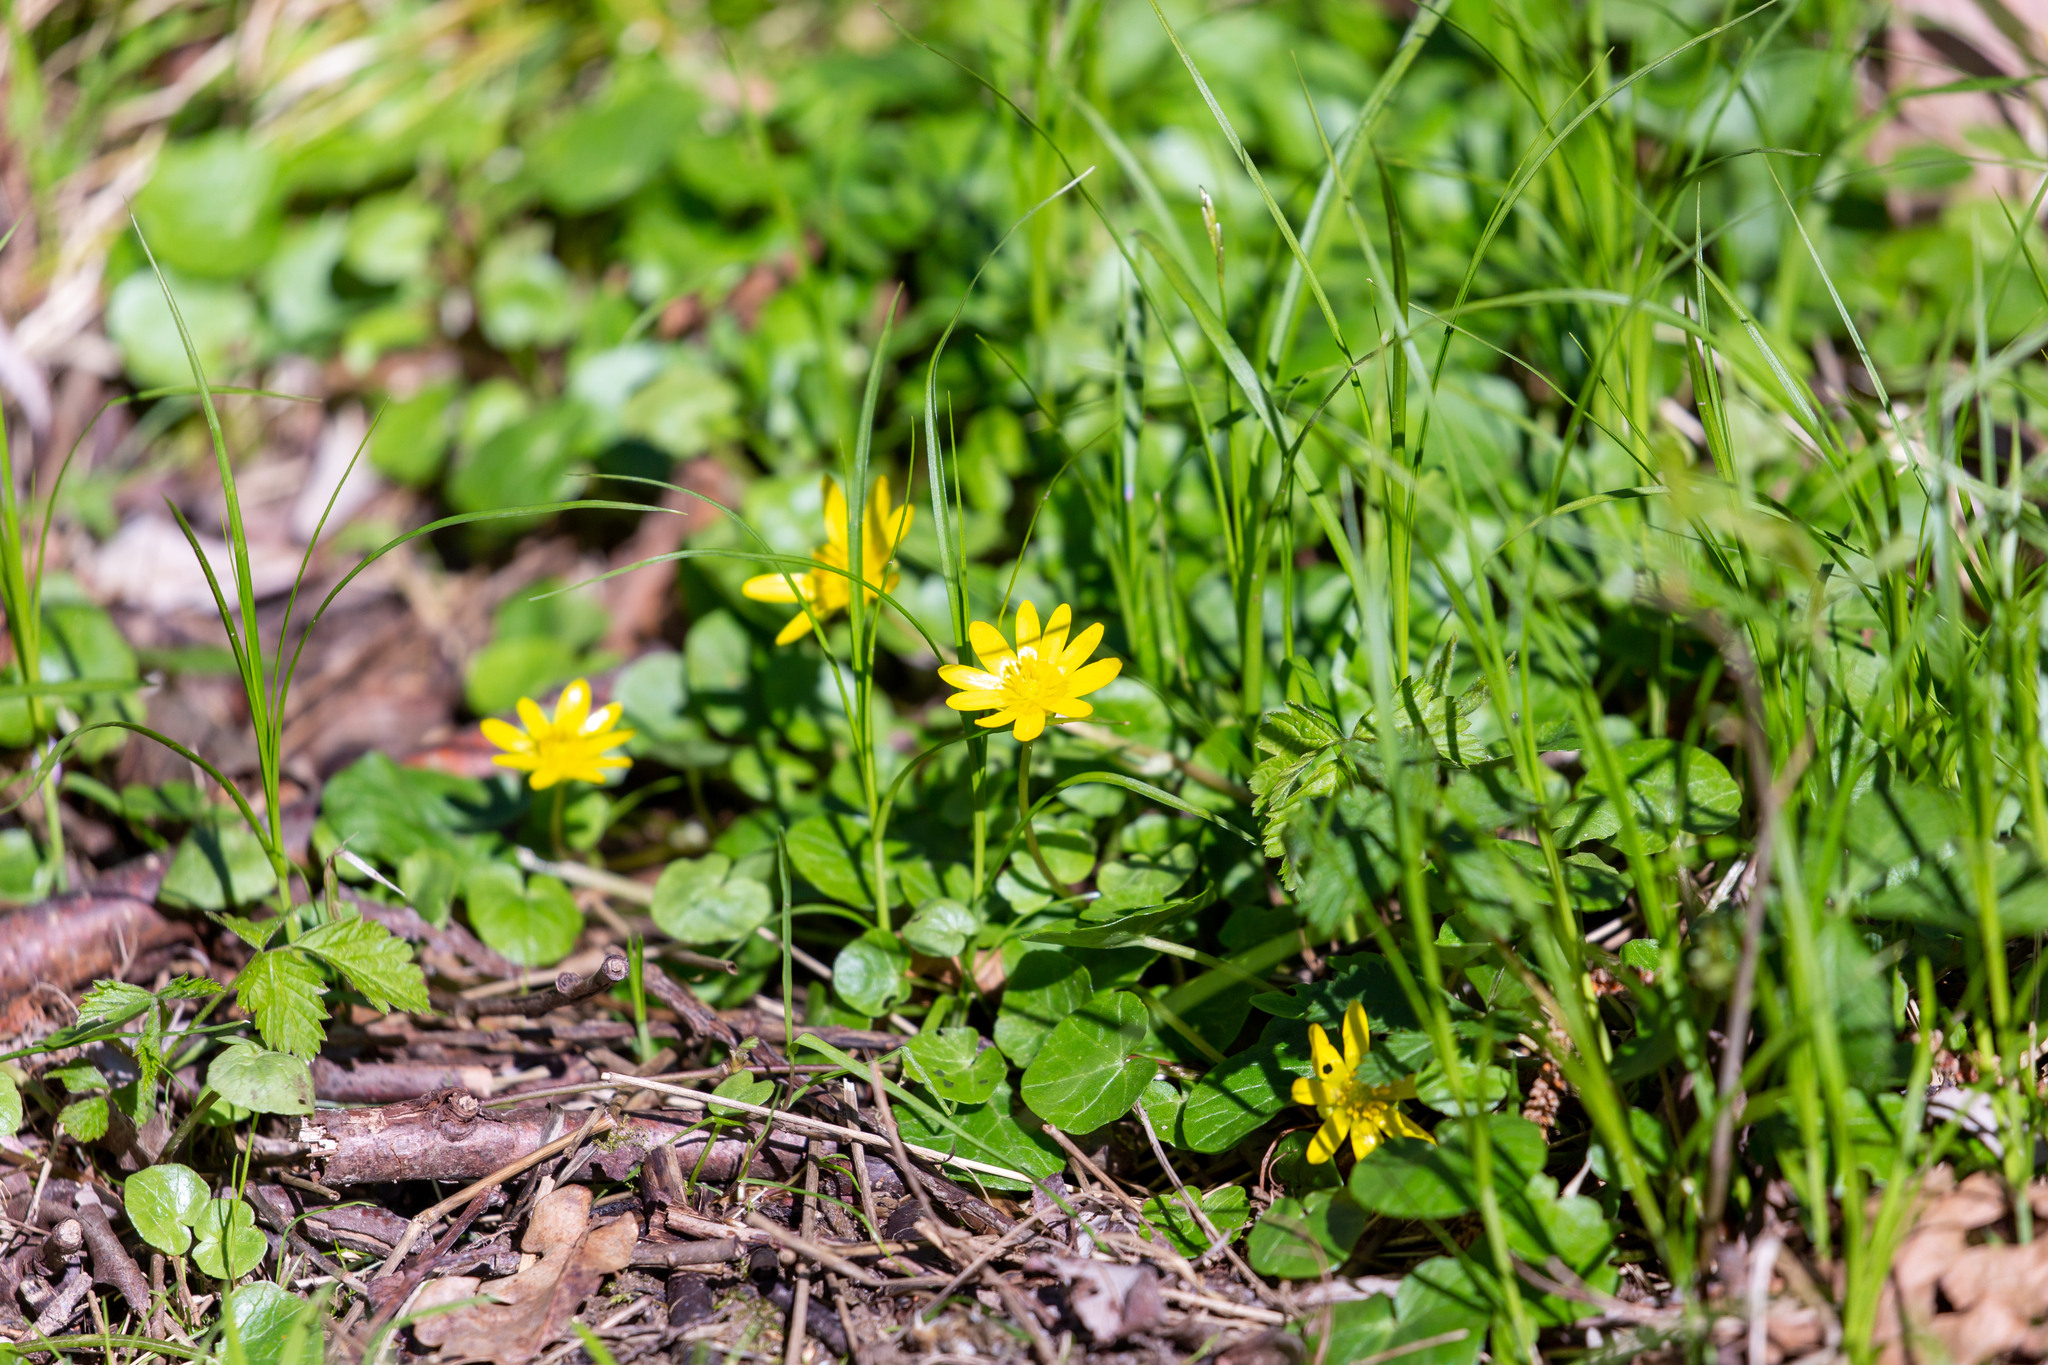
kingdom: Plantae
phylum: Tracheophyta
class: Magnoliopsida
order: Ranunculales
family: Ranunculaceae
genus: Ficaria
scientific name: Ficaria verna
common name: Lesser celandine
